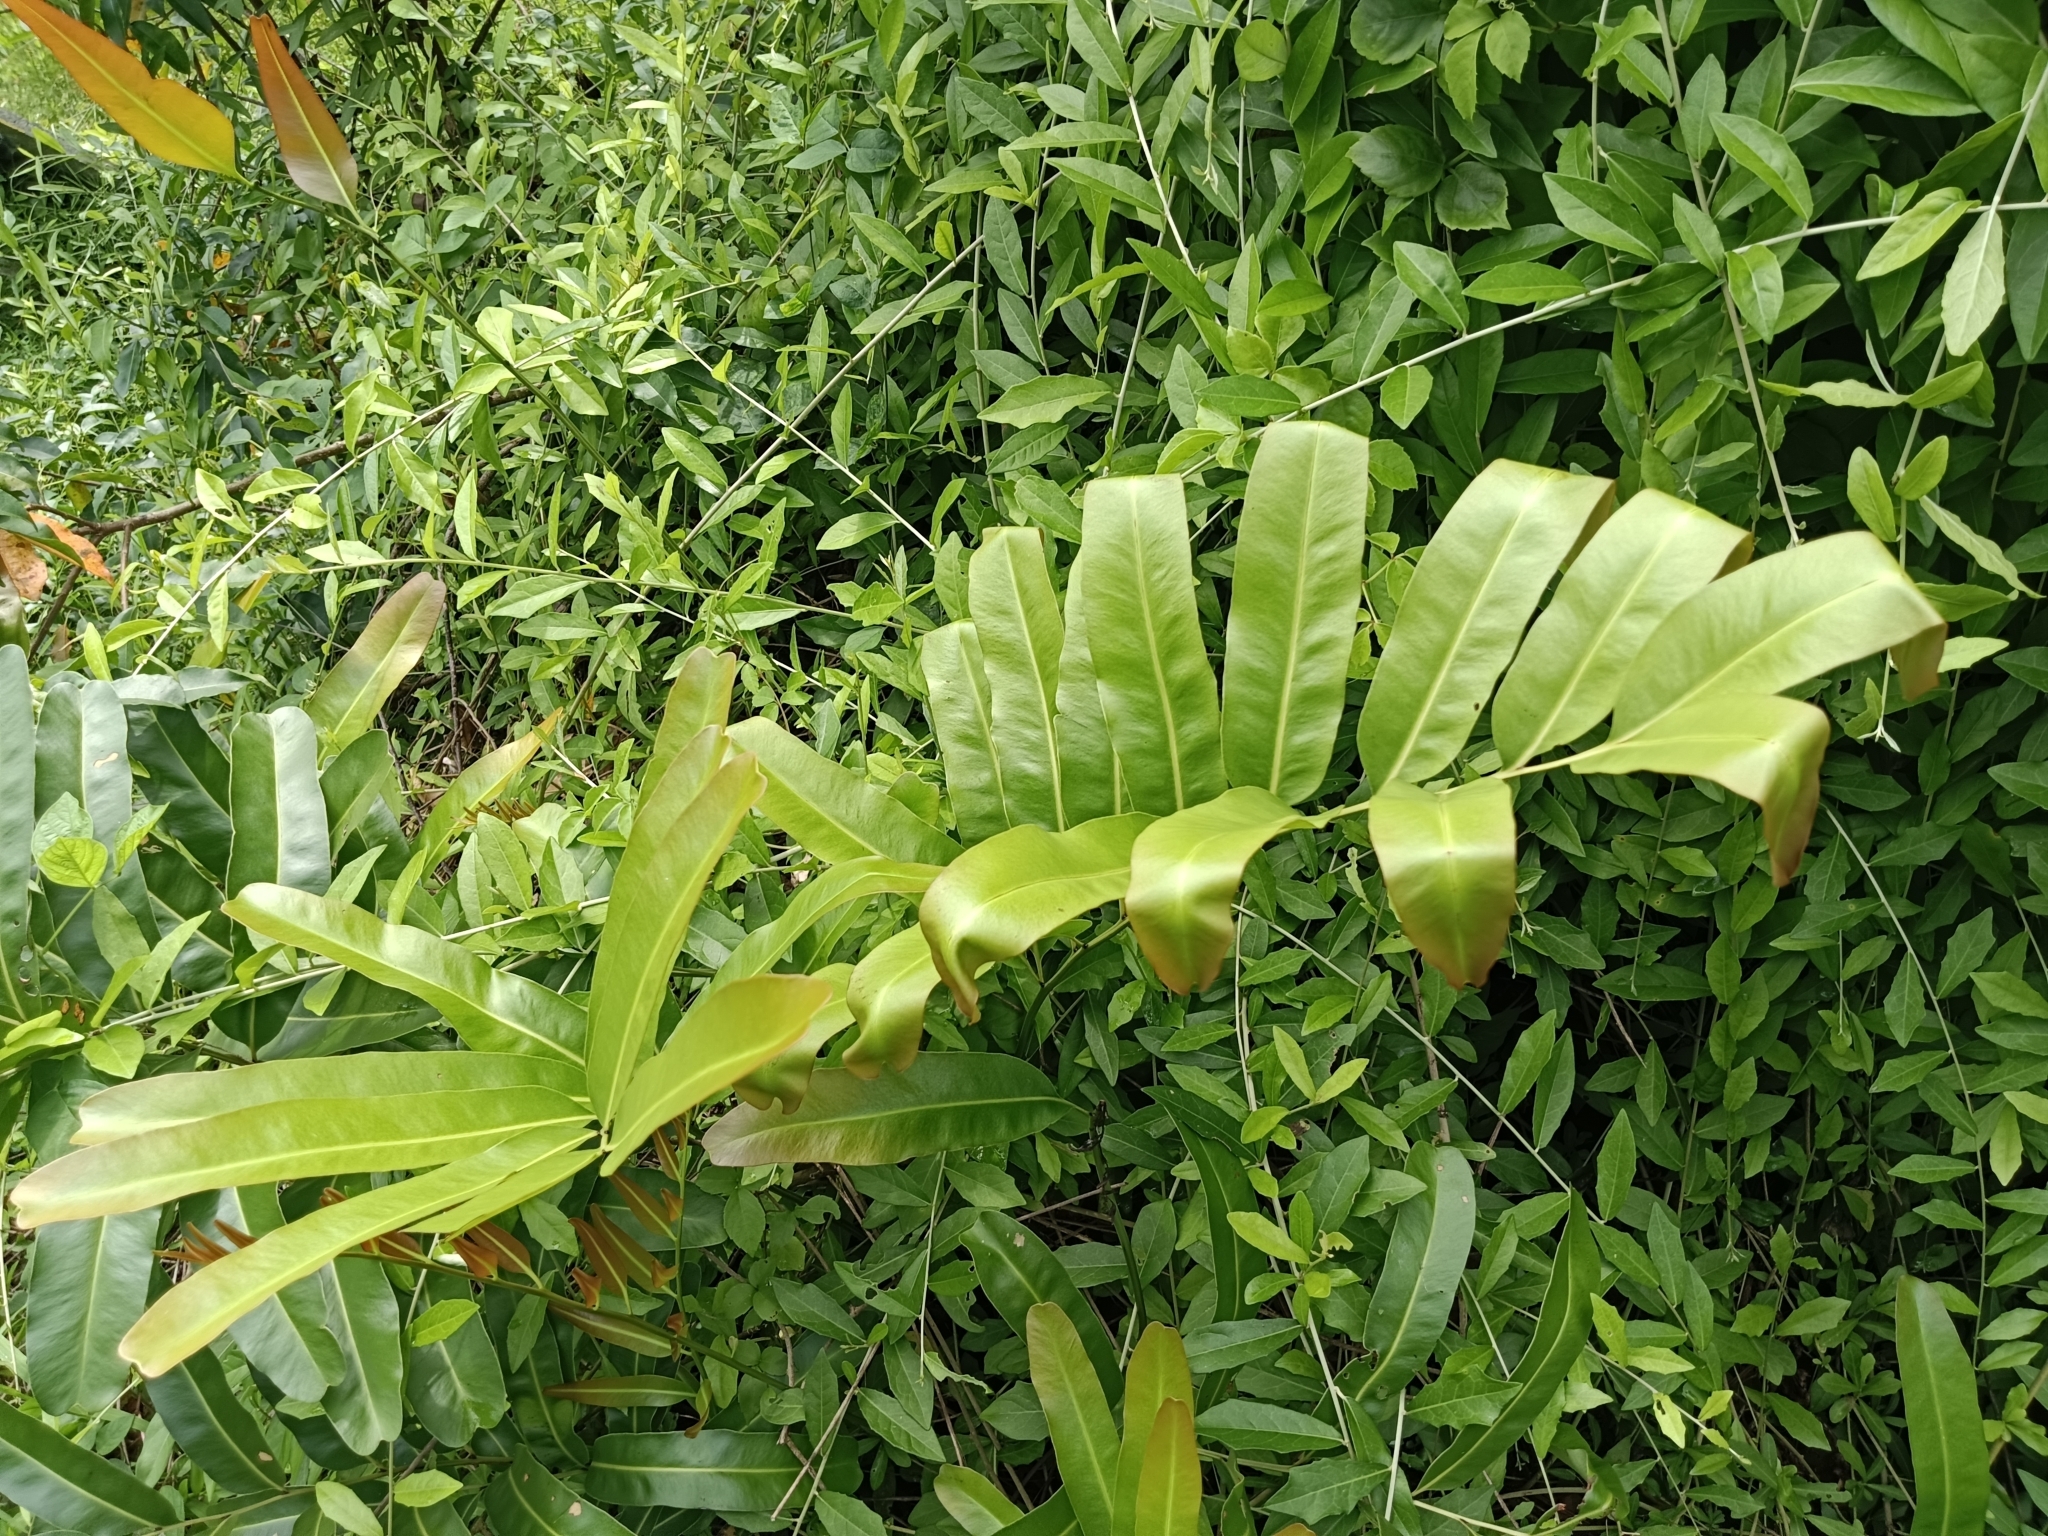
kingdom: Plantae
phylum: Tracheophyta
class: Polypodiopsida
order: Polypodiales
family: Pteridaceae
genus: Acrostichum
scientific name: Acrostichum aureum
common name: Leather fern
